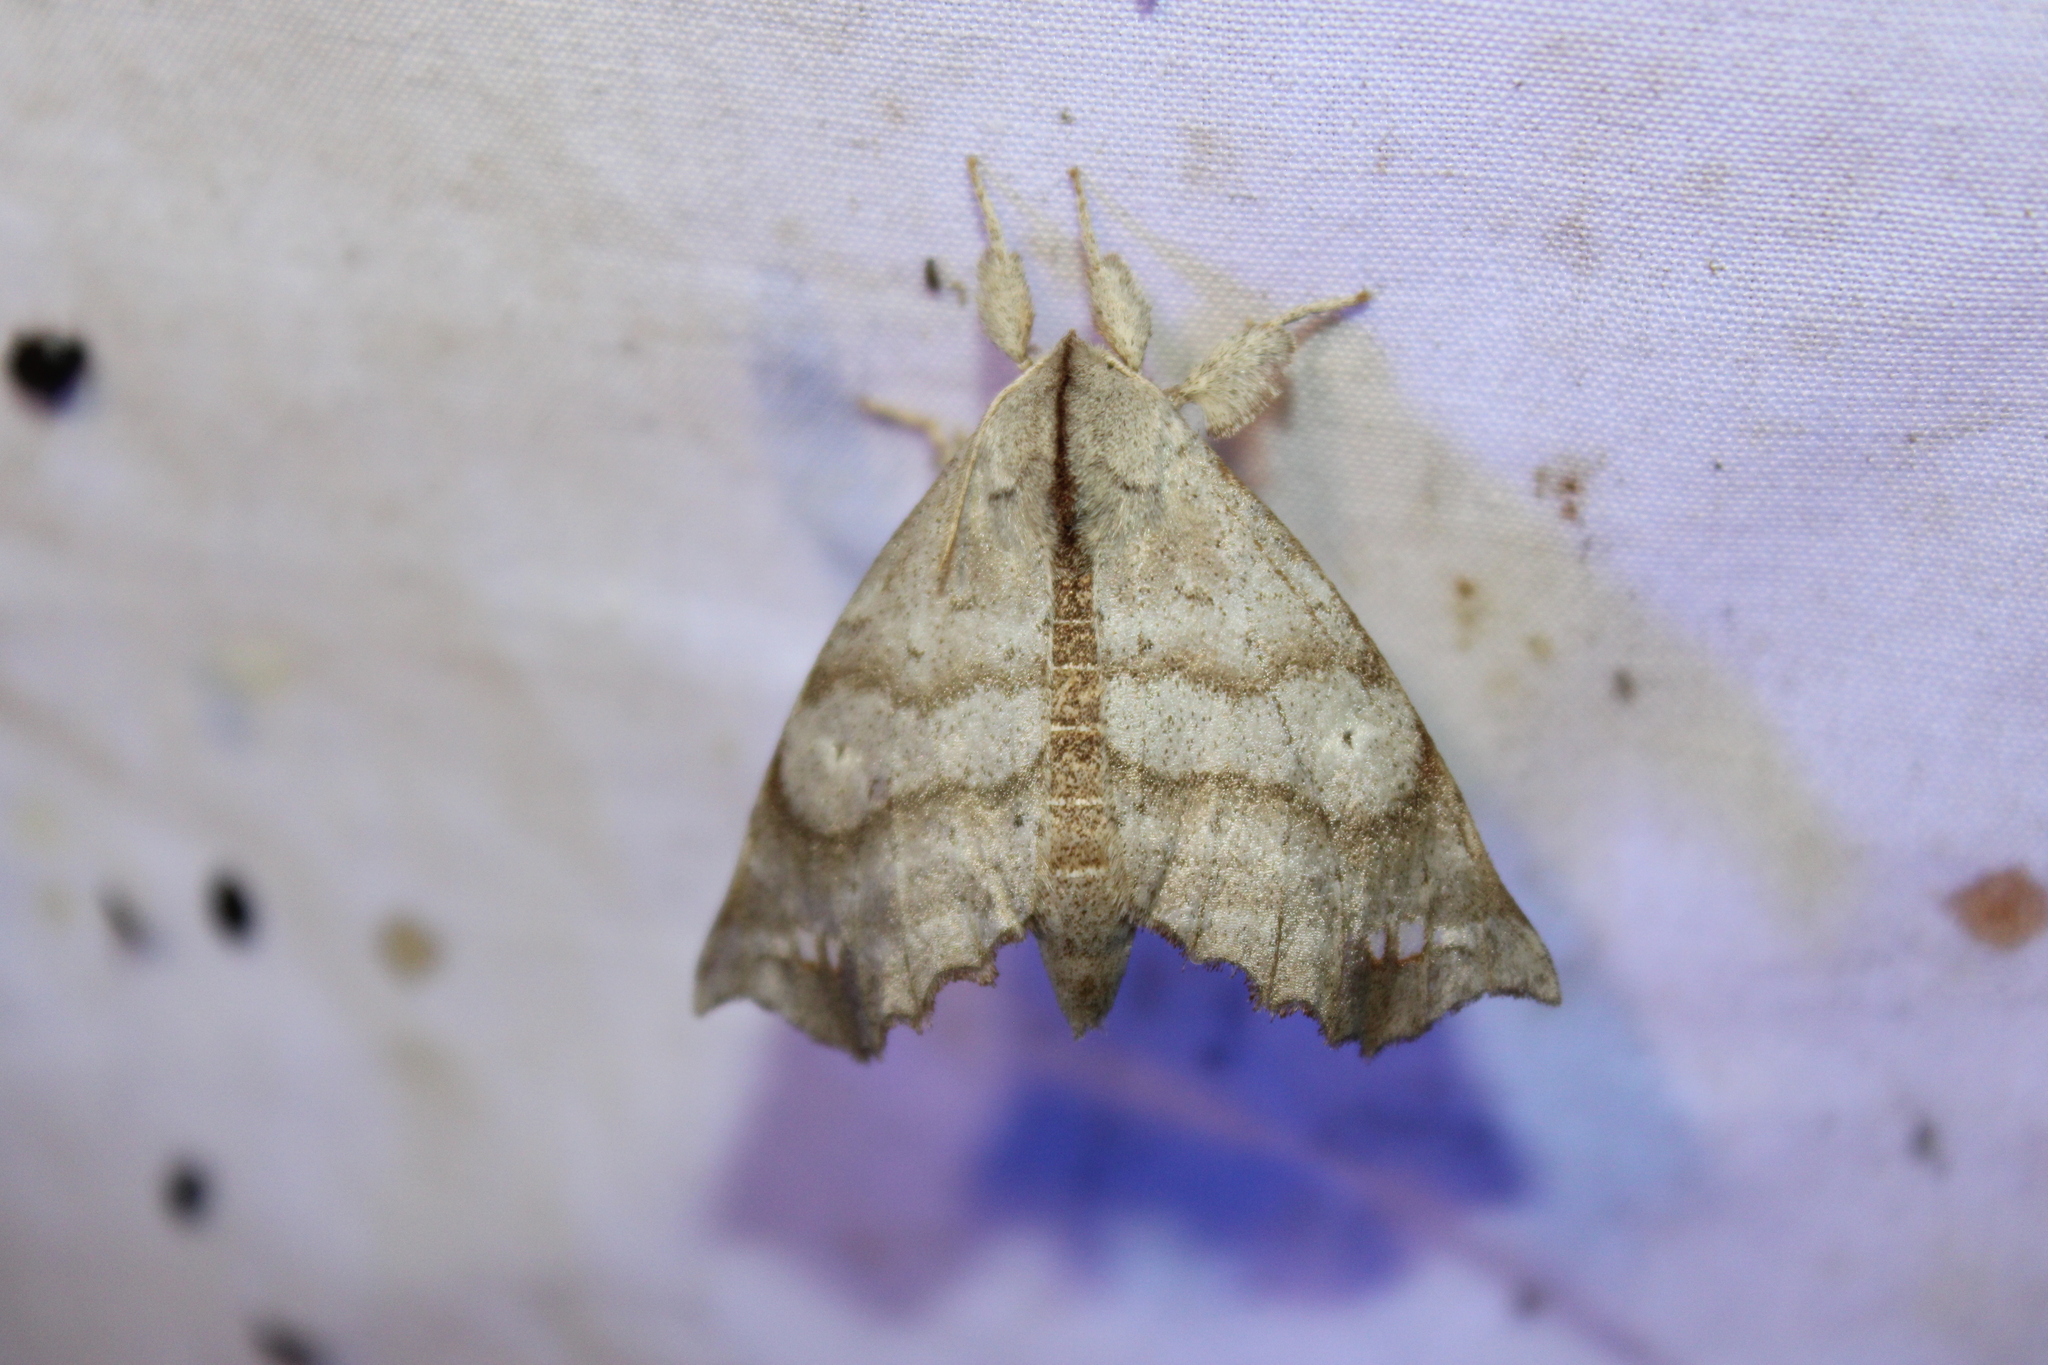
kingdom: Animalia
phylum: Arthropoda
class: Insecta
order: Lepidoptera
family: Apatelodidae
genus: Olceclostera
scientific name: Olceclostera angelica
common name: Angel moth
